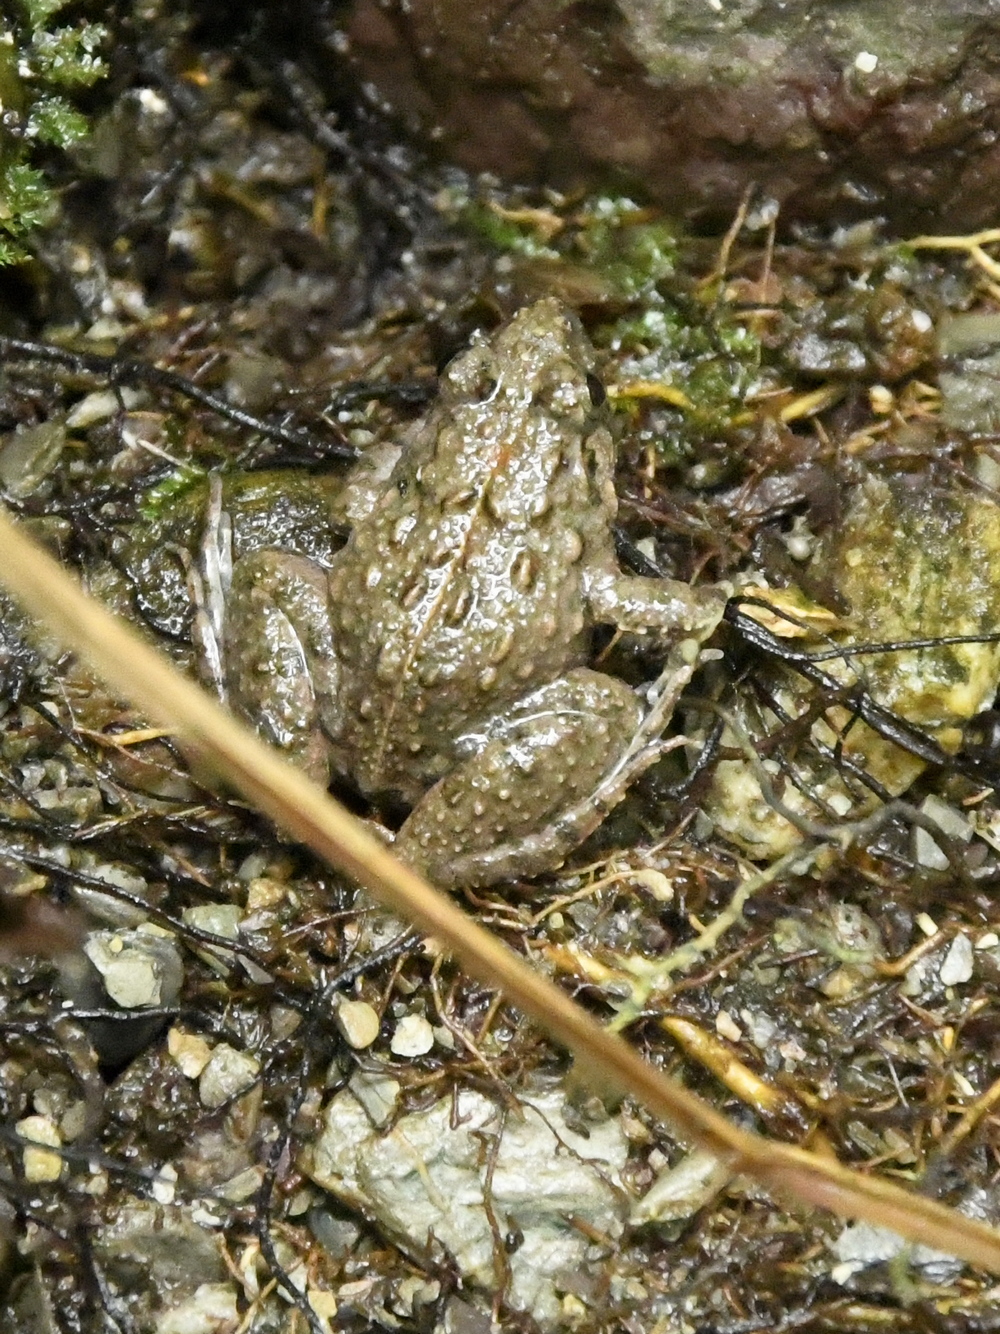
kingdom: Animalia
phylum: Chordata
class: Amphibia
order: Anura
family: Dicroglossidae
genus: Fejervarya
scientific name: Fejervarya limnocharis
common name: Asian grass frog/common pond frog/field frog/grass frog/indian rice frog
